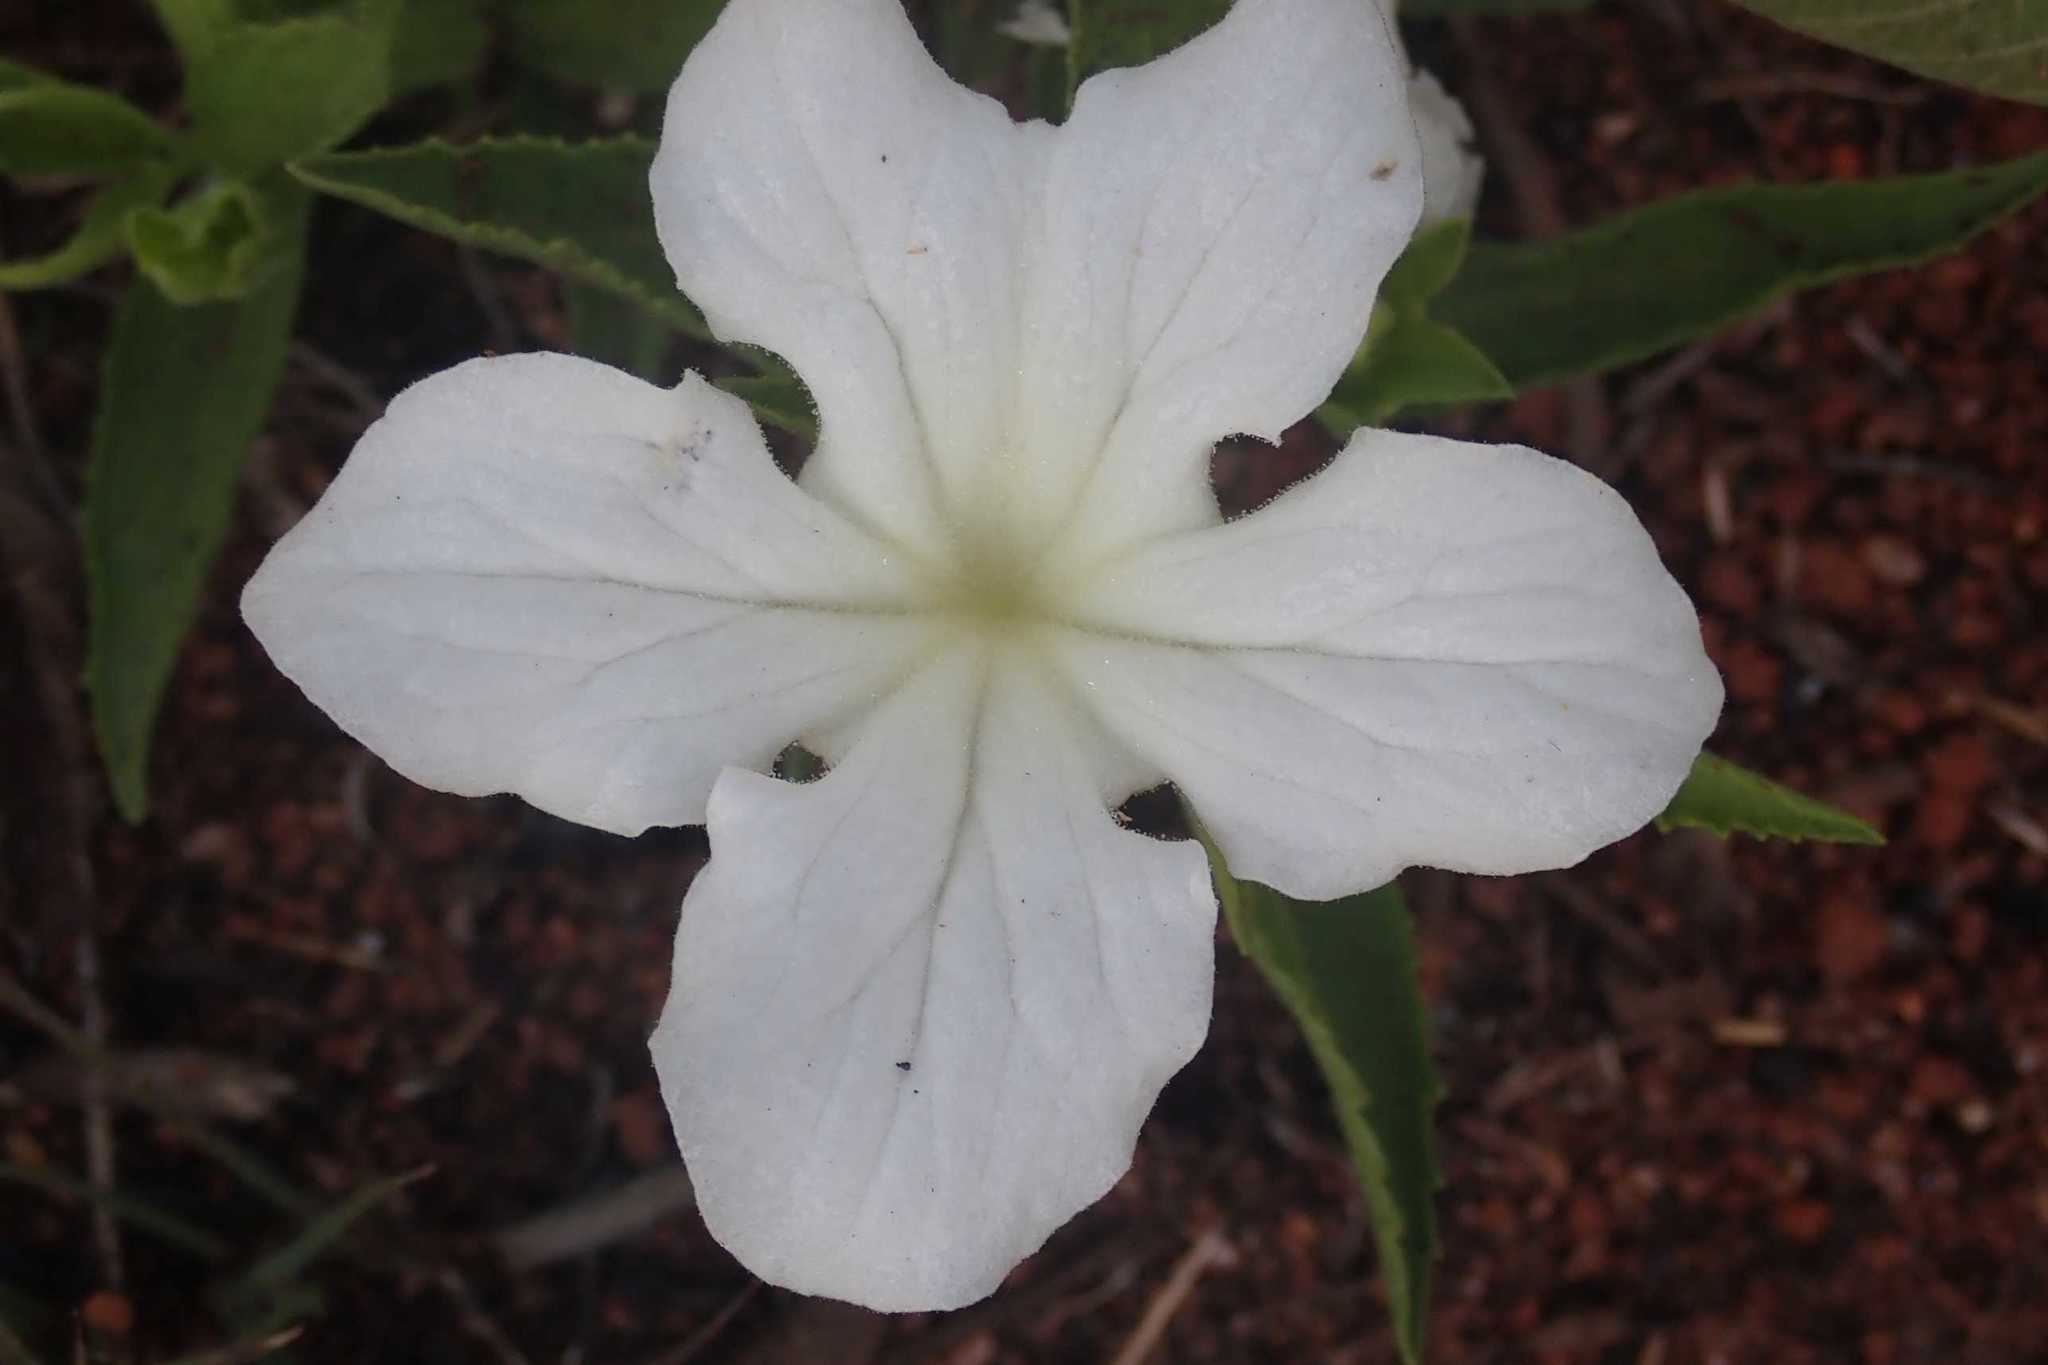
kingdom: Plantae
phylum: Tracheophyta
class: Magnoliopsida
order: Lamiales
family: Orobanchaceae
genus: Cycnium
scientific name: Cycnium adonense
